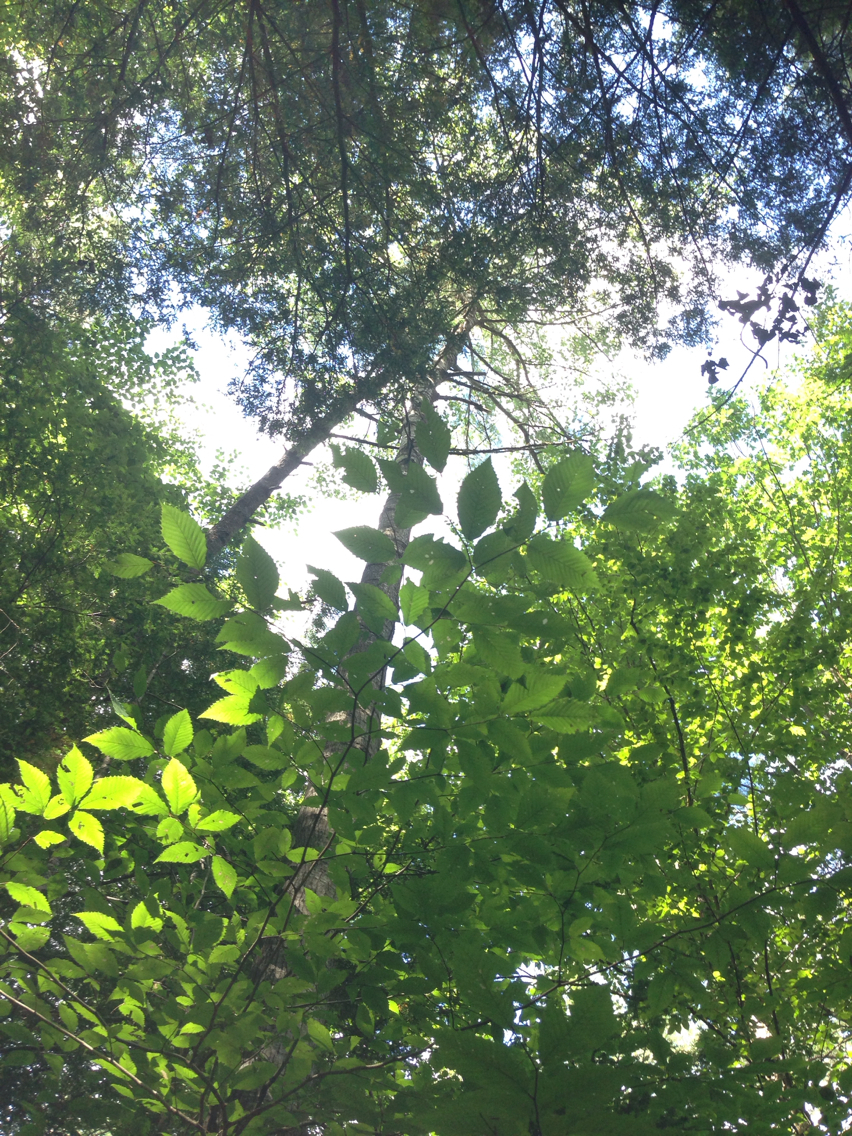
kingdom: Plantae
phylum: Tracheophyta
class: Magnoliopsida
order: Malpighiales
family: Salicaceae
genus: Populus
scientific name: Populus grandidentata
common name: Bigtooth aspen
